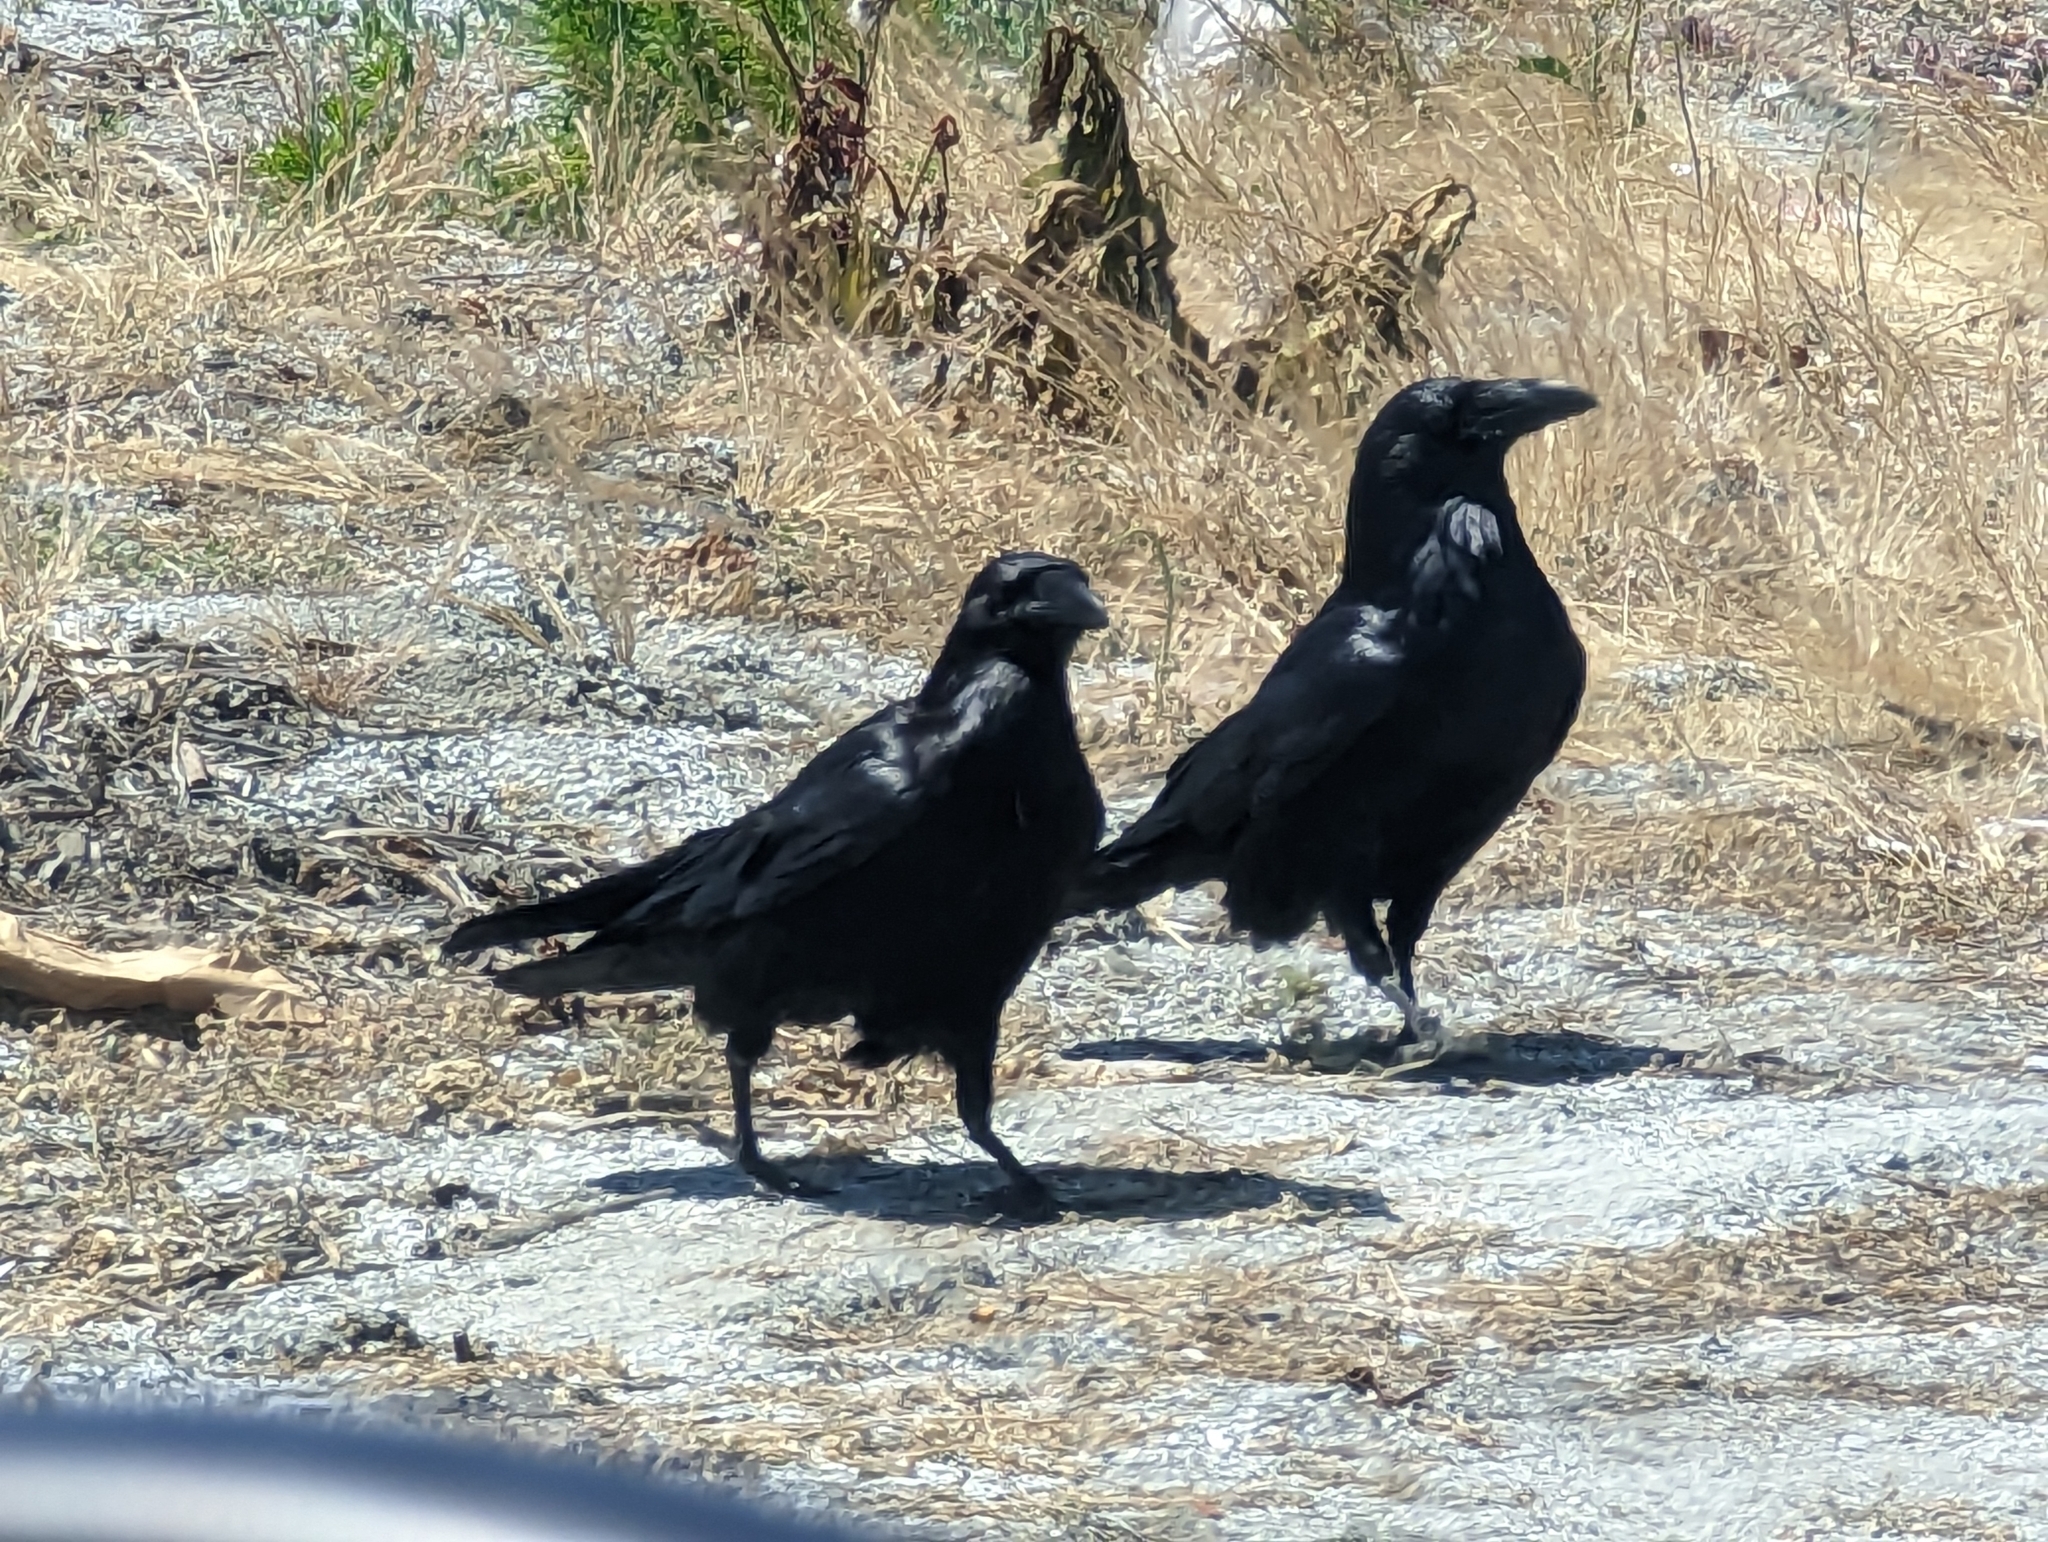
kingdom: Animalia
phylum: Chordata
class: Aves
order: Passeriformes
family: Corvidae
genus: Corvus
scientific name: Corvus corax
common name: Common raven
